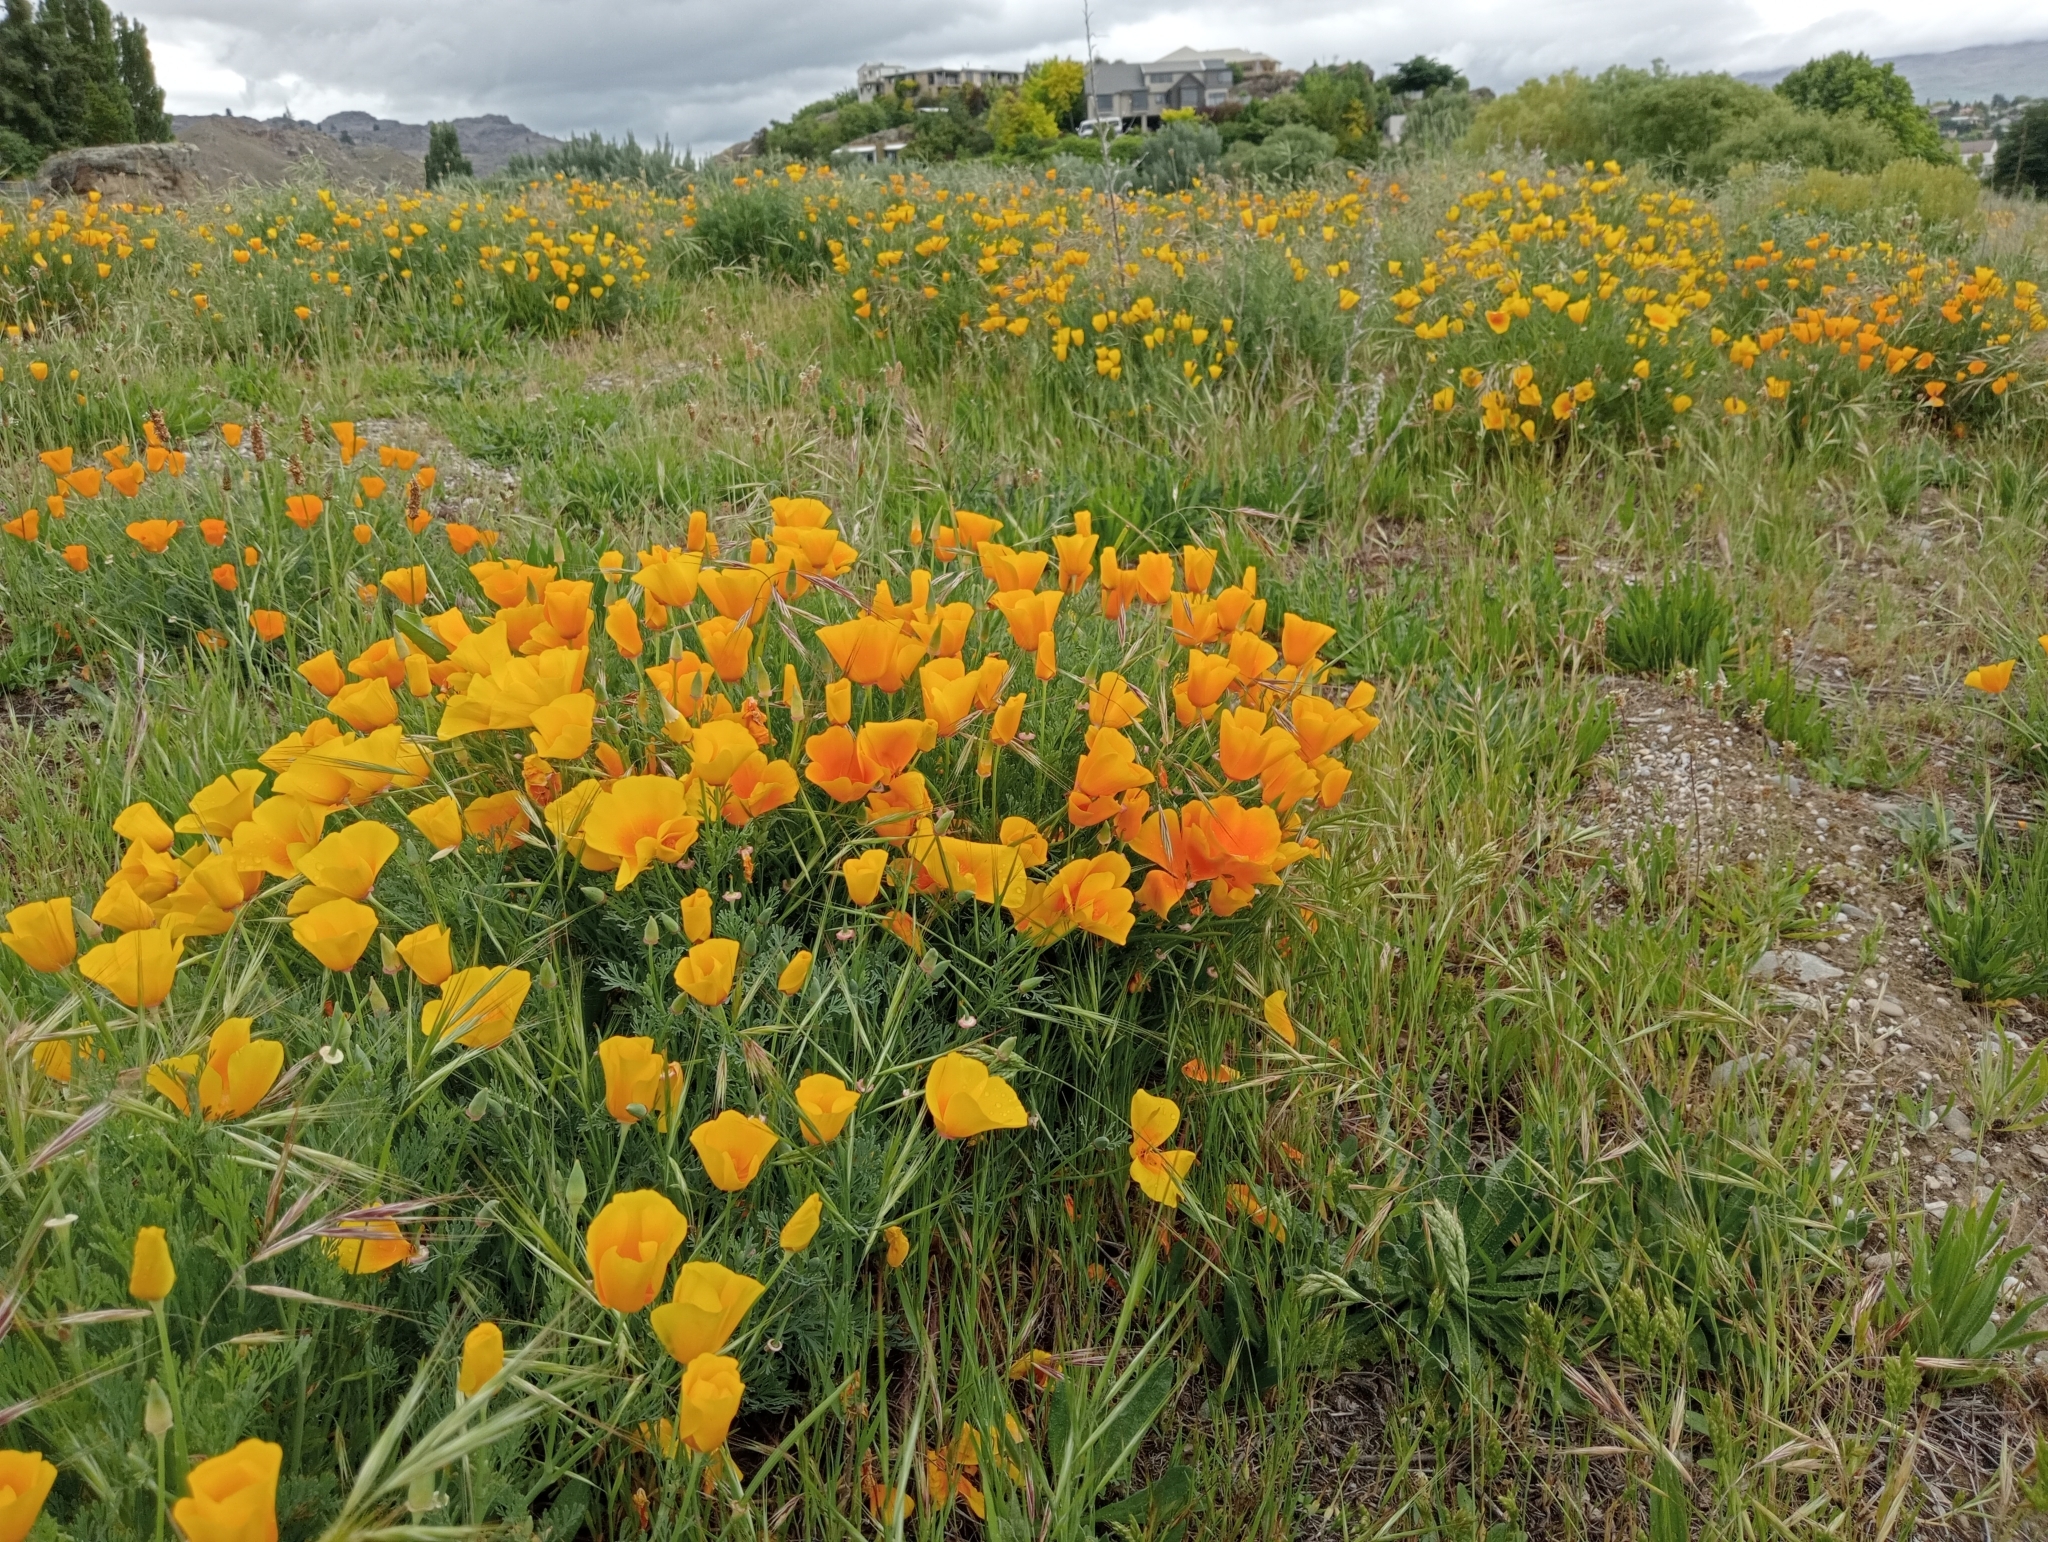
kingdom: Plantae
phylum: Tracheophyta
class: Magnoliopsida
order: Ranunculales
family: Papaveraceae
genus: Eschscholzia
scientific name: Eschscholzia californica
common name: California poppy
